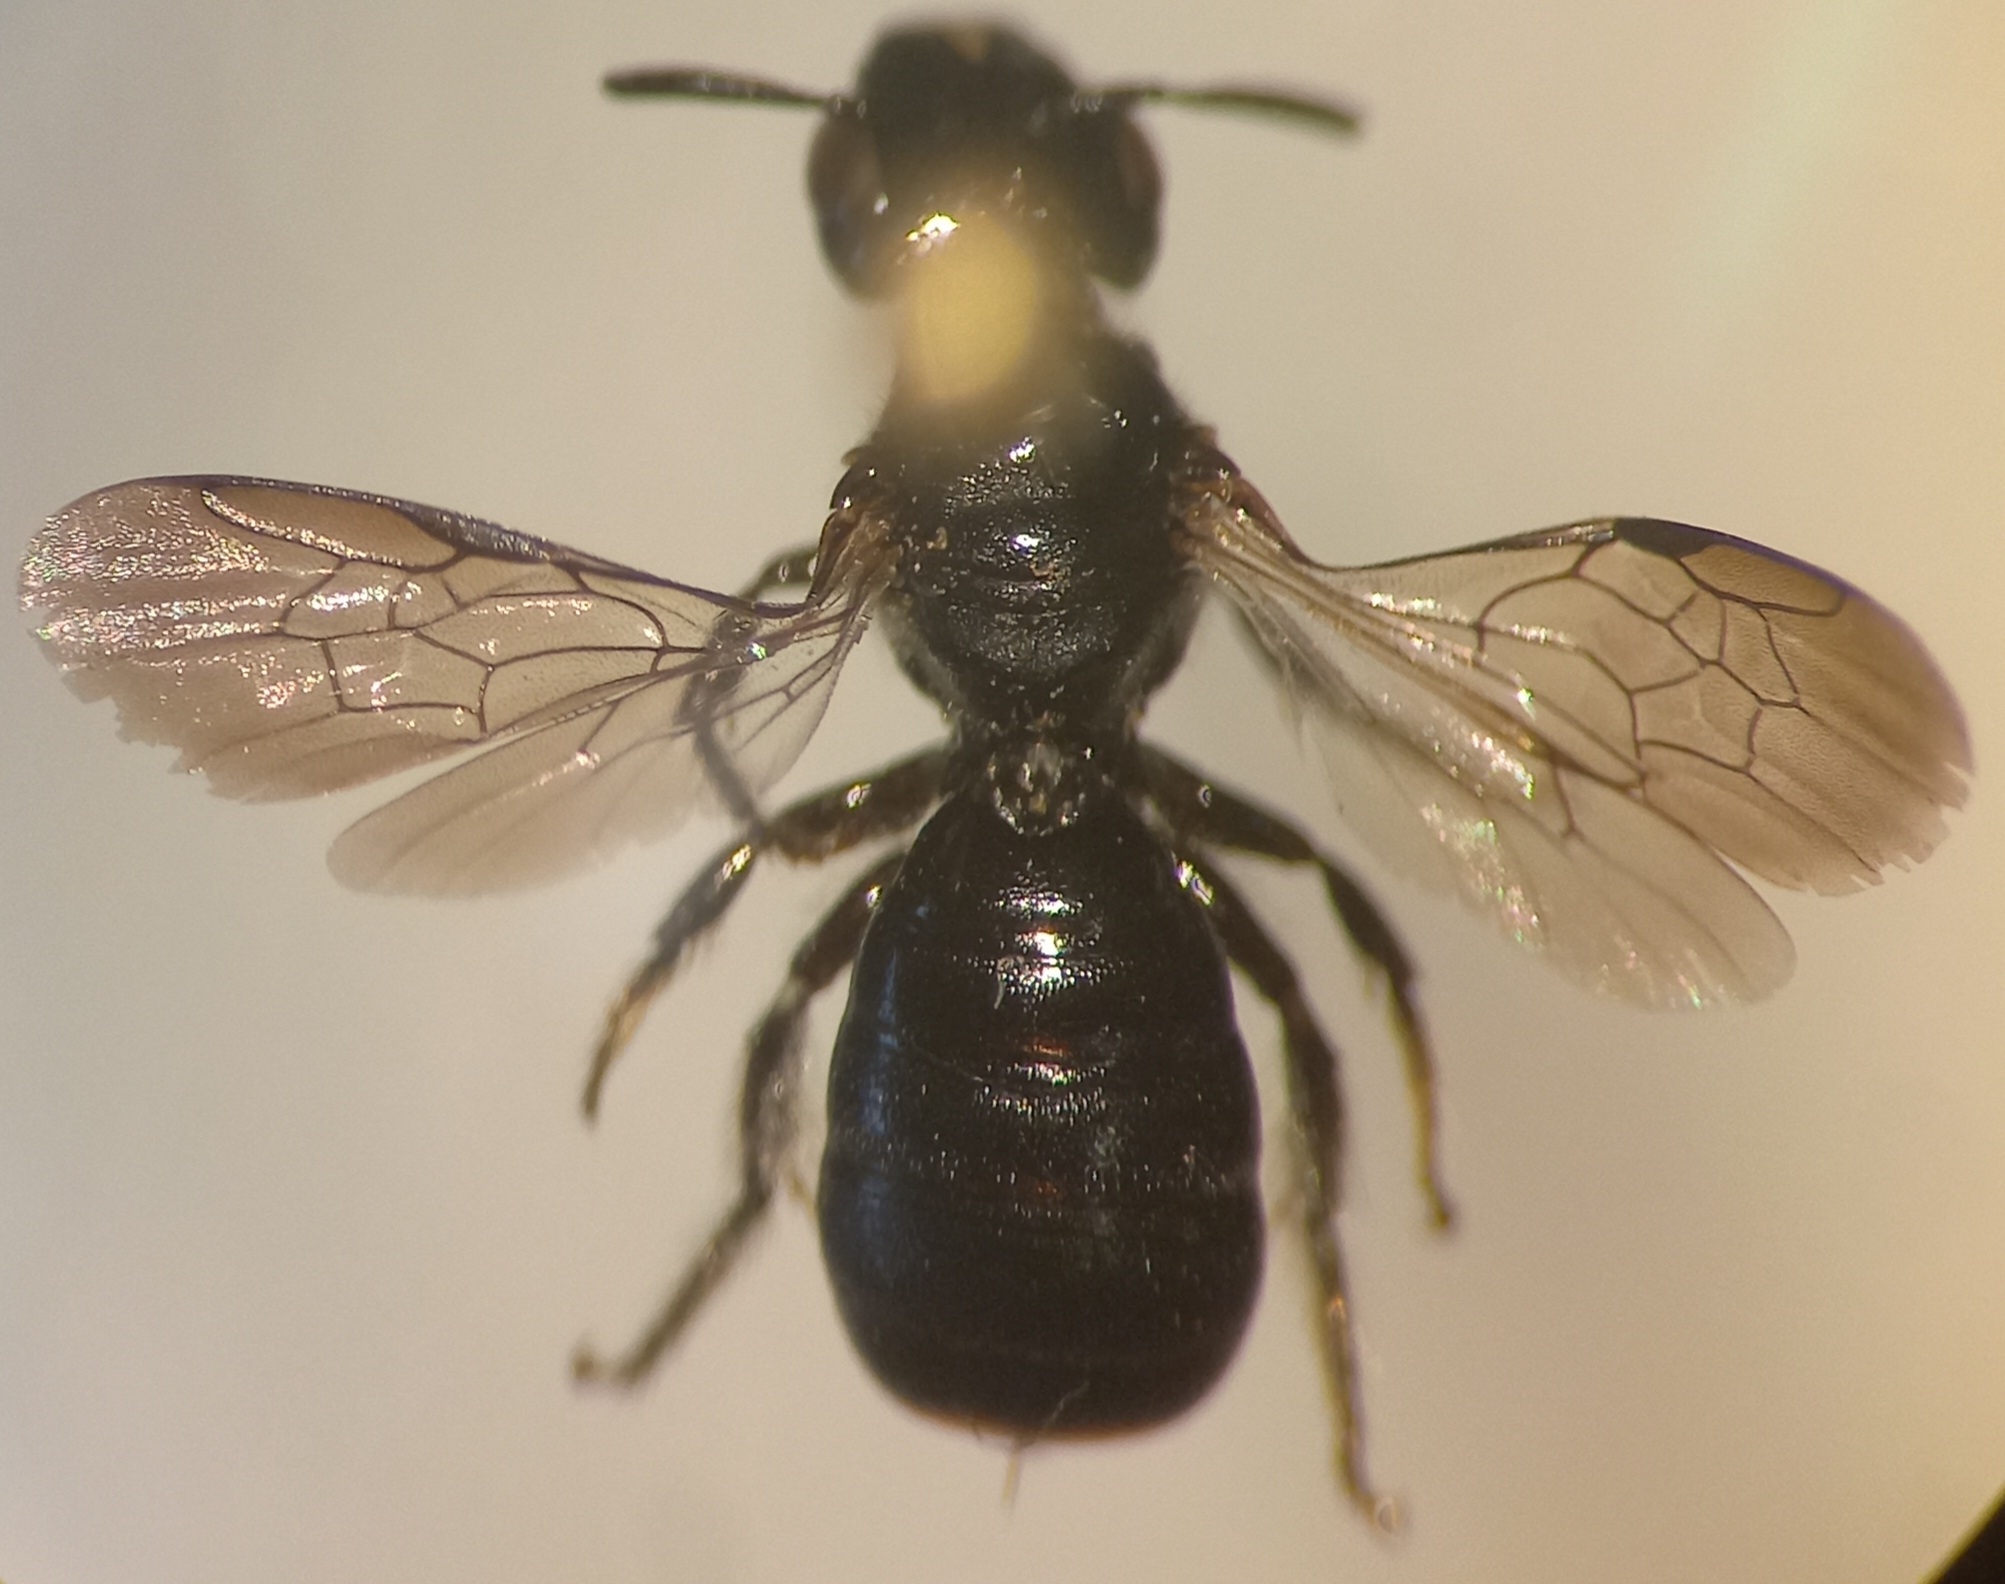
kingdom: Animalia
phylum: Arthropoda
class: Insecta
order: Hymenoptera
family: Apidae
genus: Ceratina
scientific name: Ceratina cucurbitina
